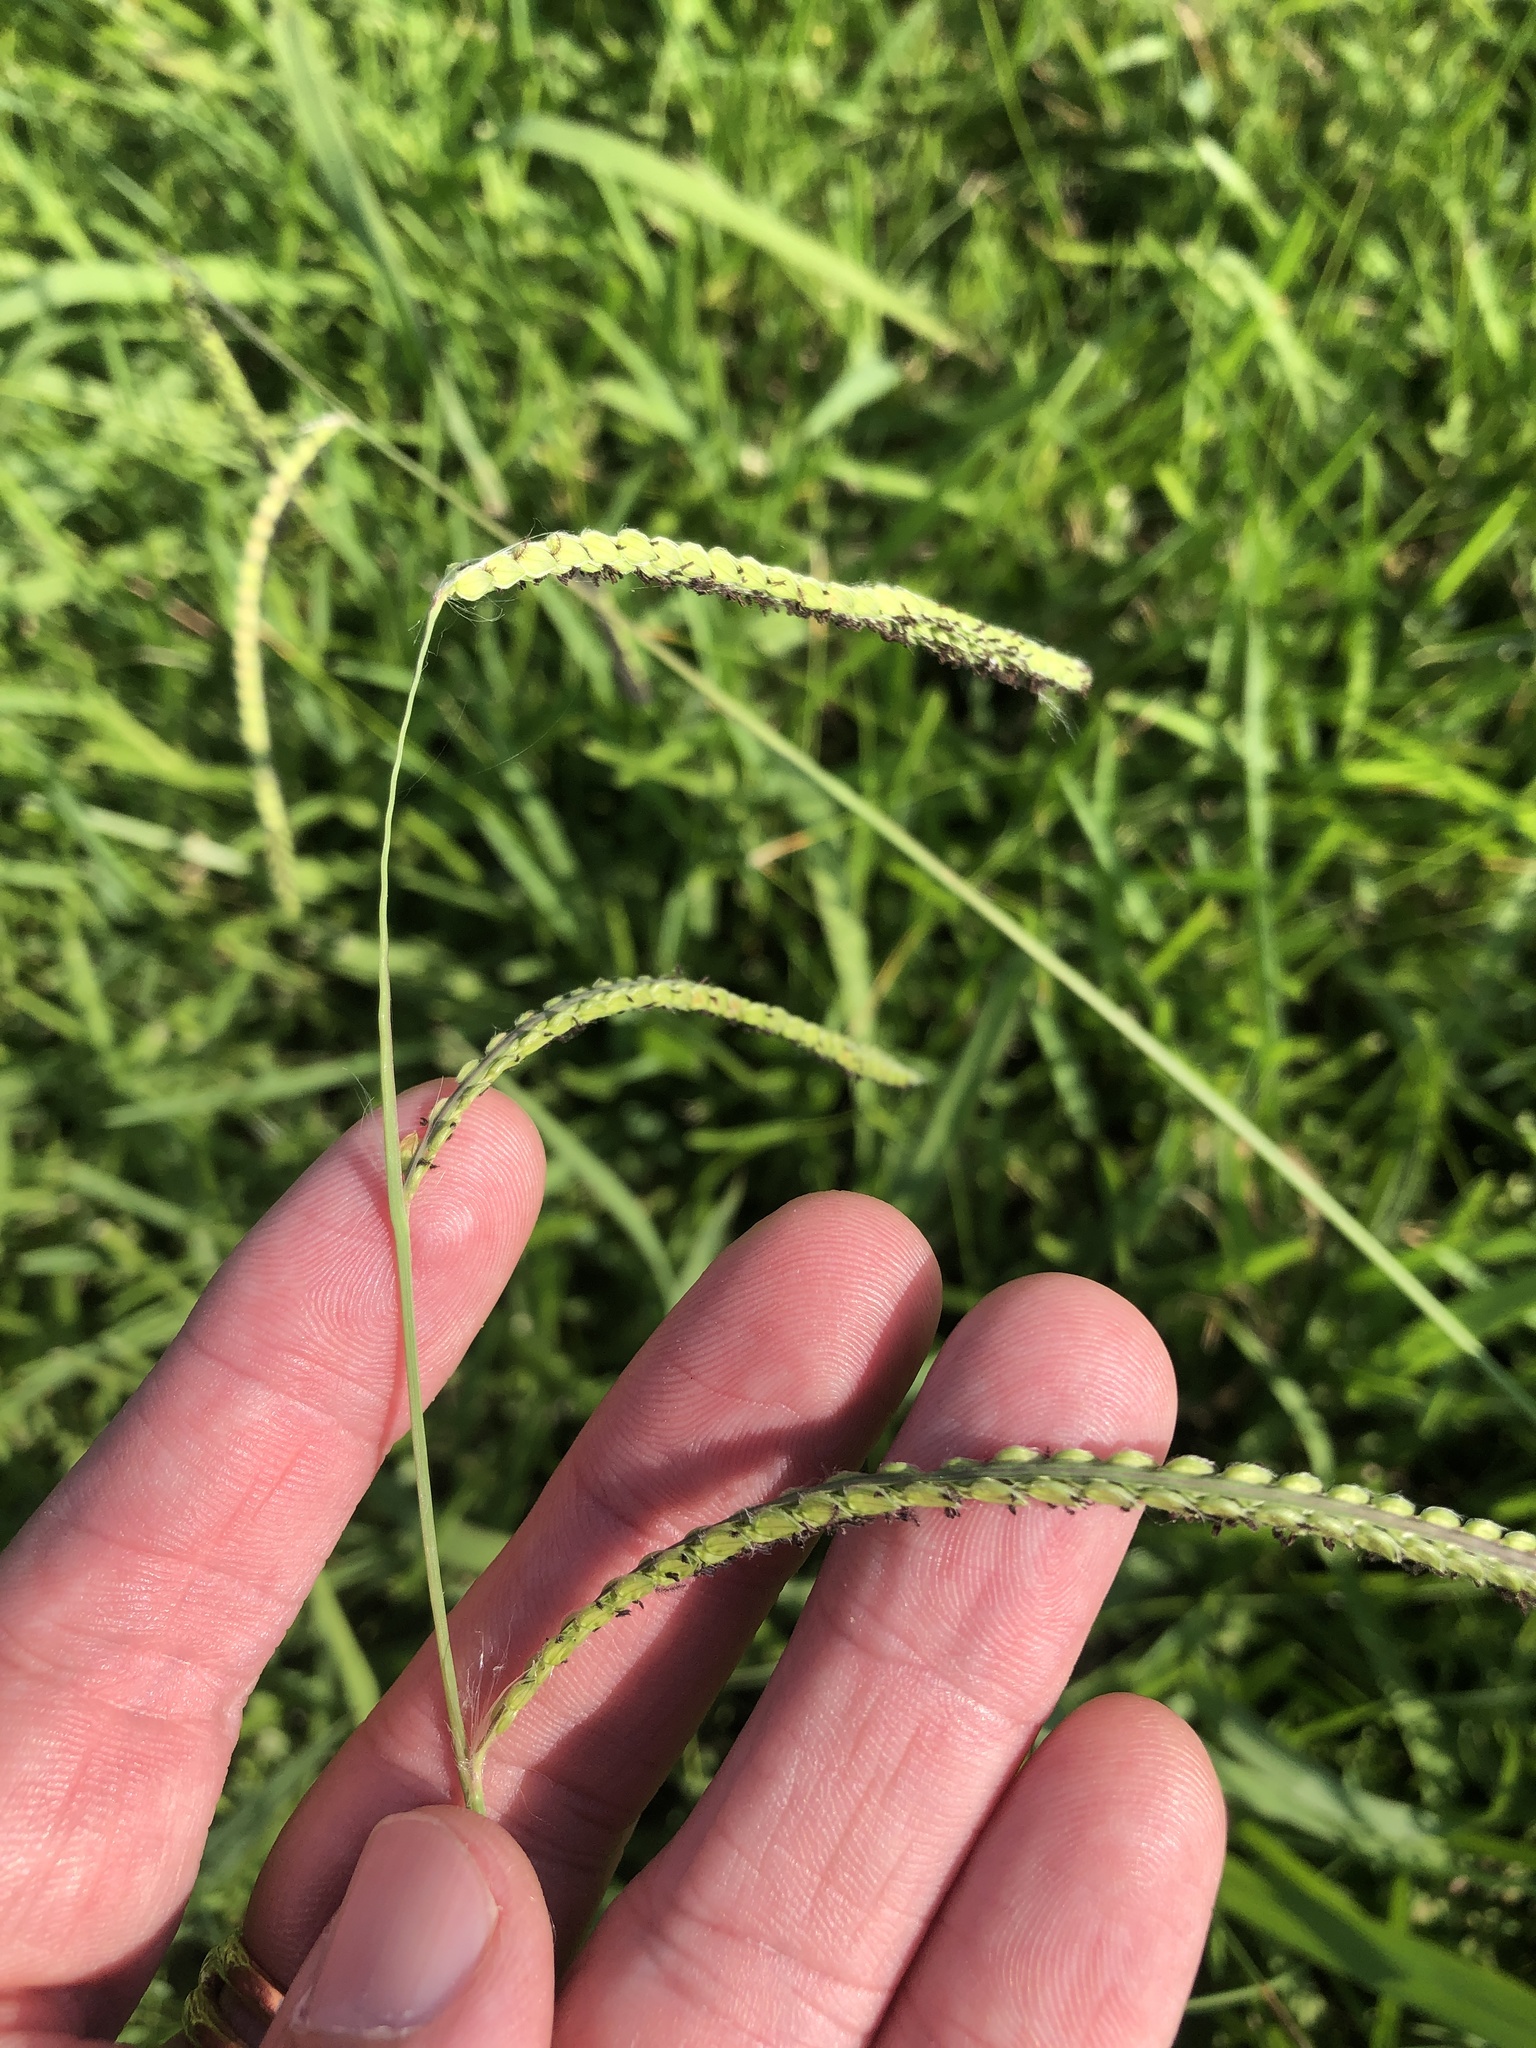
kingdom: Plantae
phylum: Tracheophyta
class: Liliopsida
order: Poales
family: Poaceae
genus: Paspalum
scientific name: Paspalum dilatatum
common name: Dallisgrass
